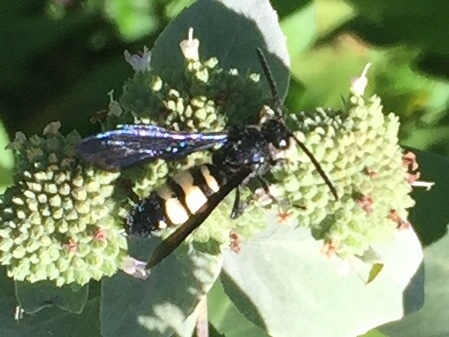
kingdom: Animalia
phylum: Arthropoda
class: Insecta
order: Hymenoptera
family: Scoliidae
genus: Scolia
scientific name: Scolia bicincta
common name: Double-banded scoliid wasp
